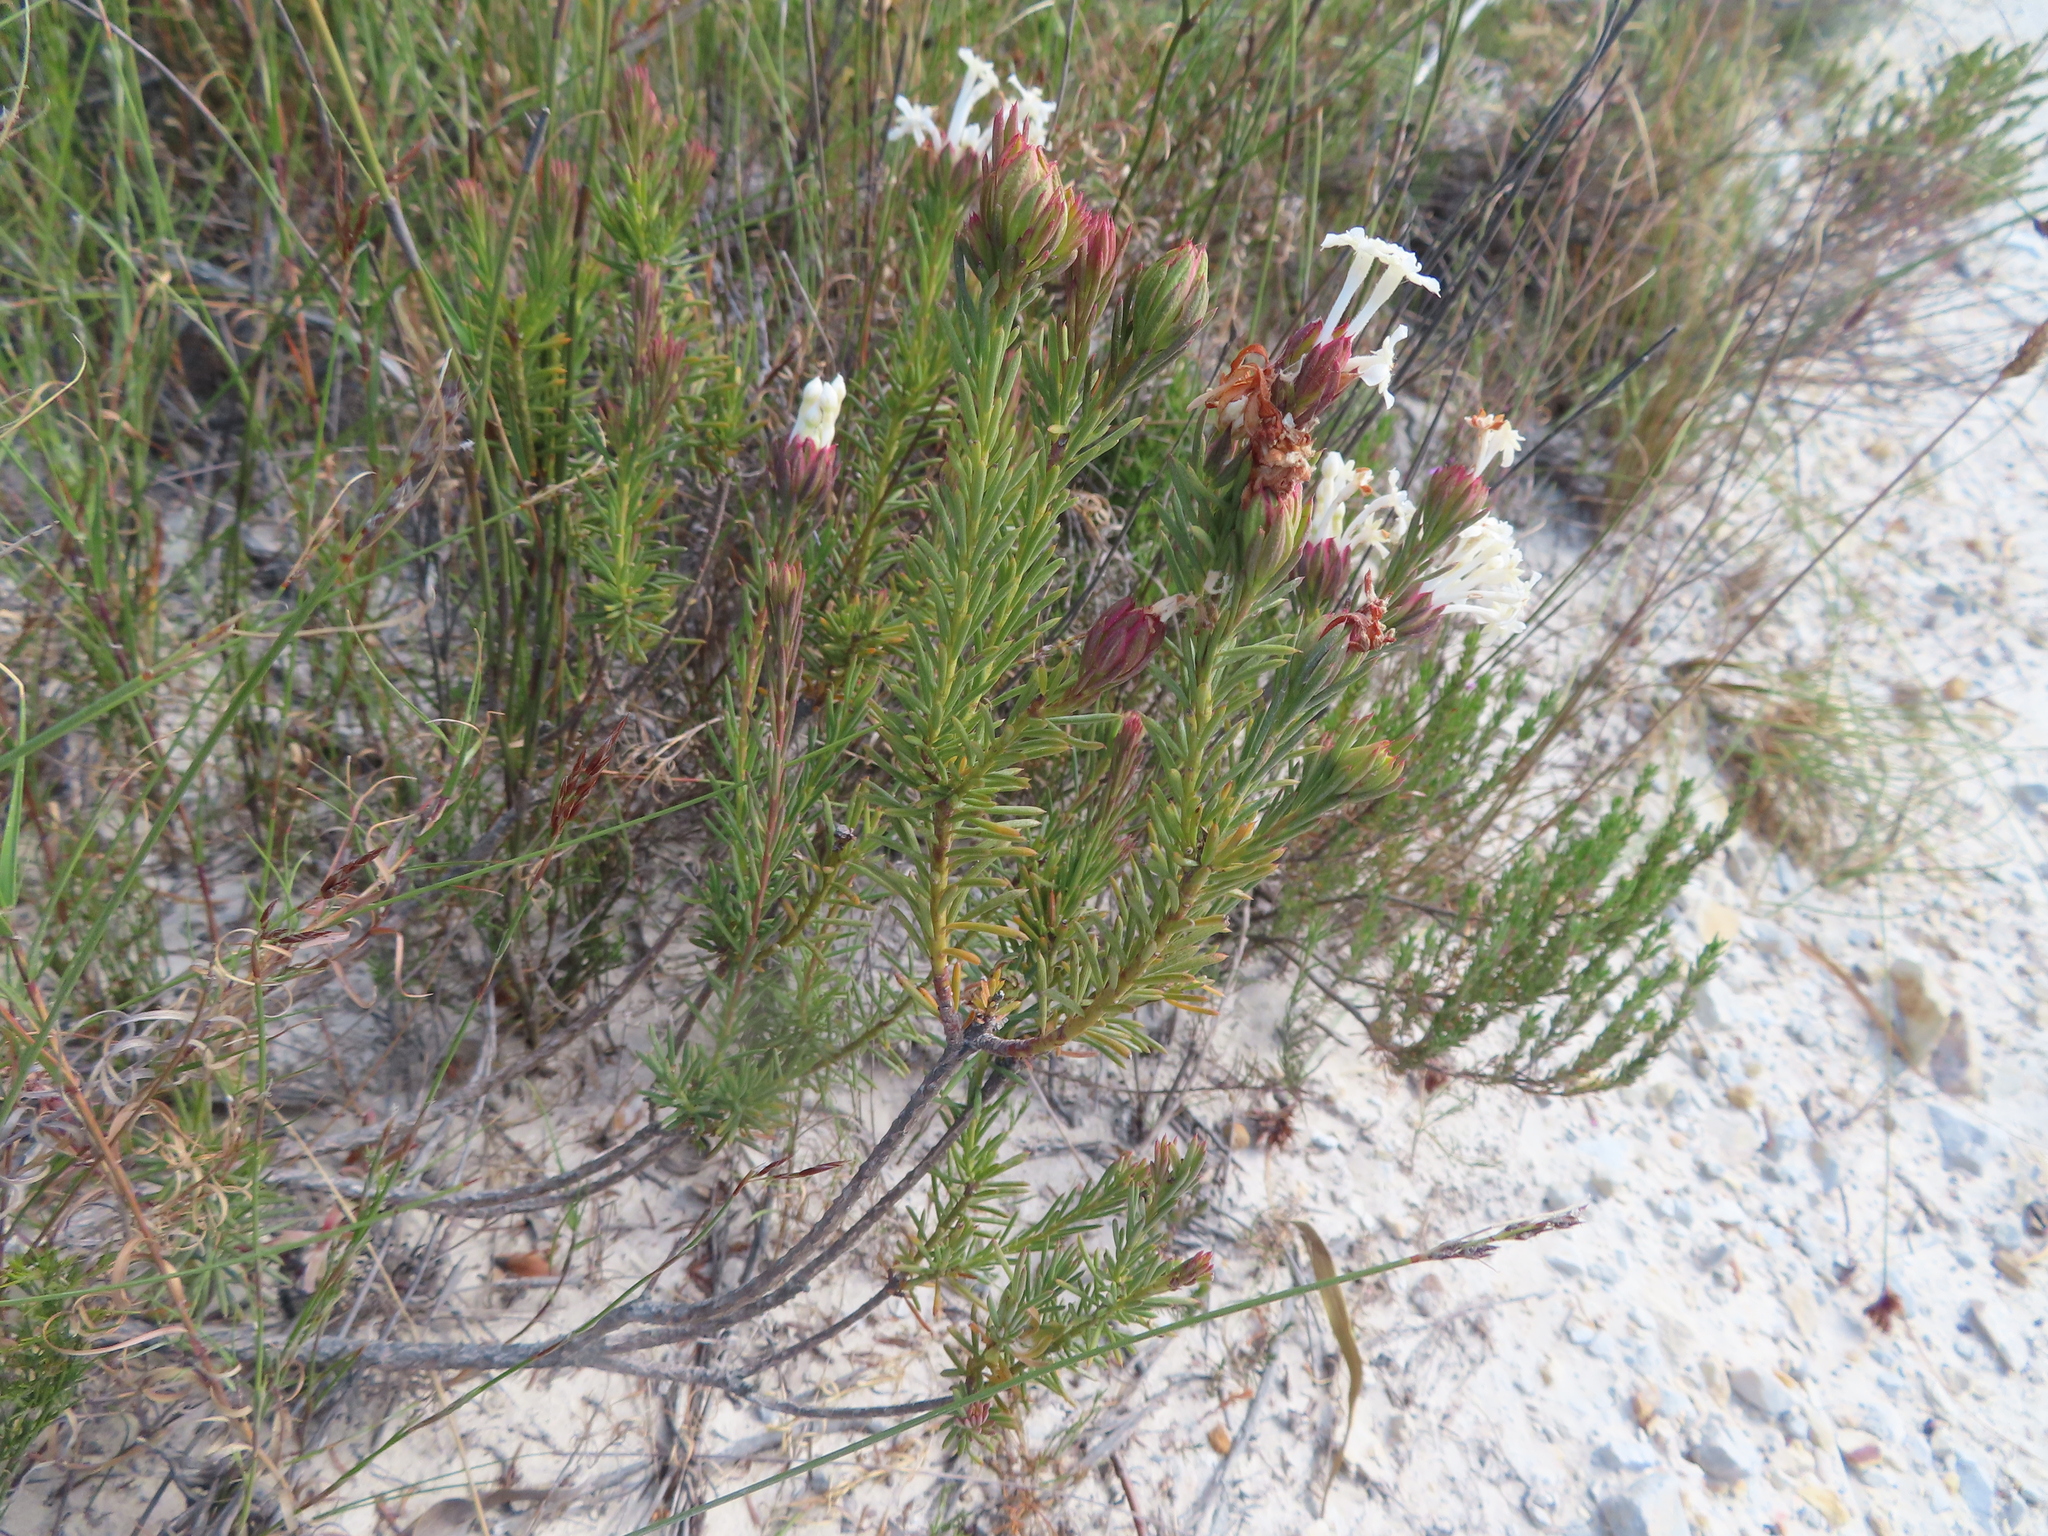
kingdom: Plantae
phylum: Tracheophyta
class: Magnoliopsida
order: Malvales
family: Thymelaeaceae
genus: Gnidia
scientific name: Gnidia pinifolia
